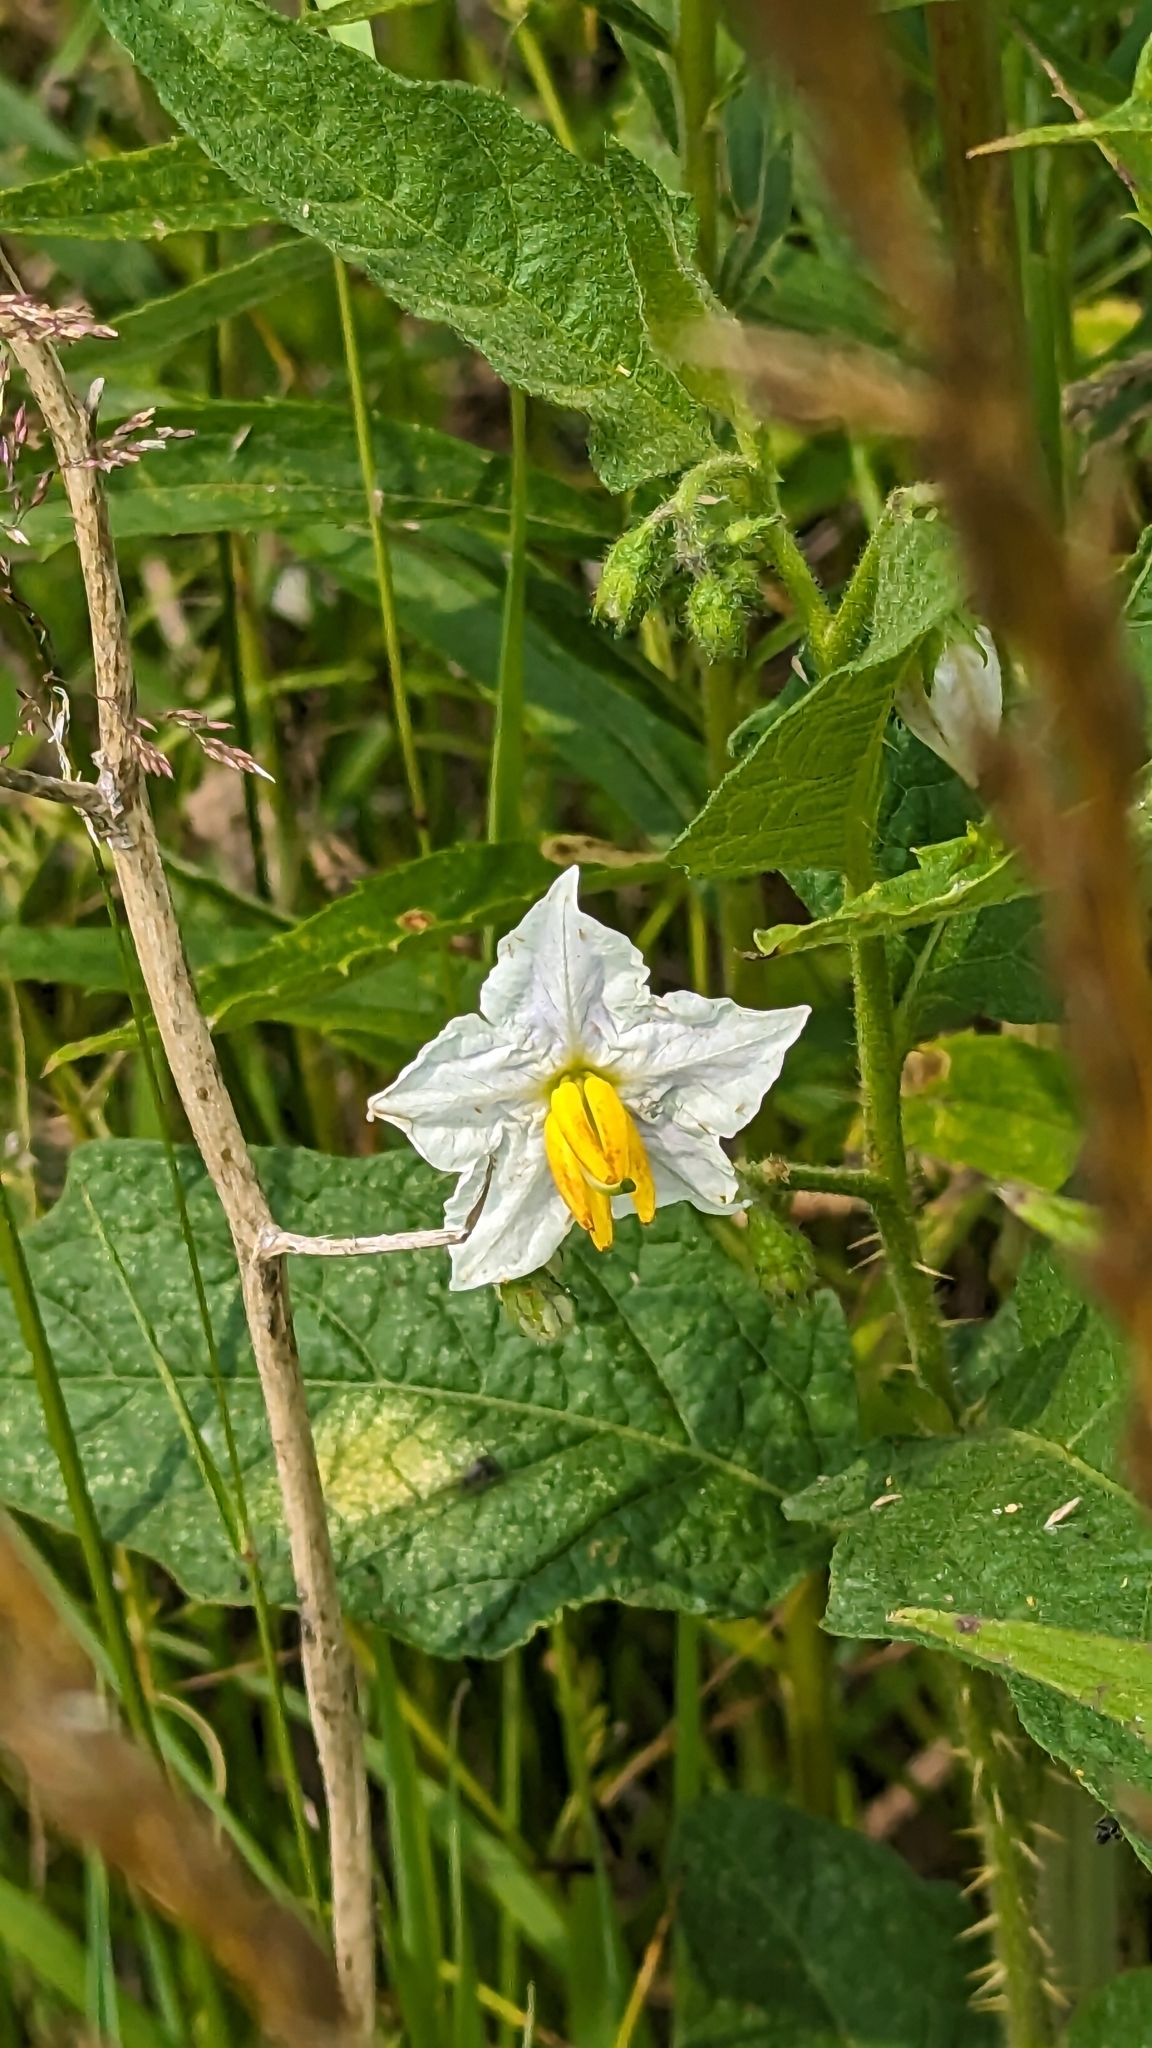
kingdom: Plantae
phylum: Tracheophyta
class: Magnoliopsida
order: Solanales
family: Solanaceae
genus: Solanum
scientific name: Solanum carolinense
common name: Horse-nettle
